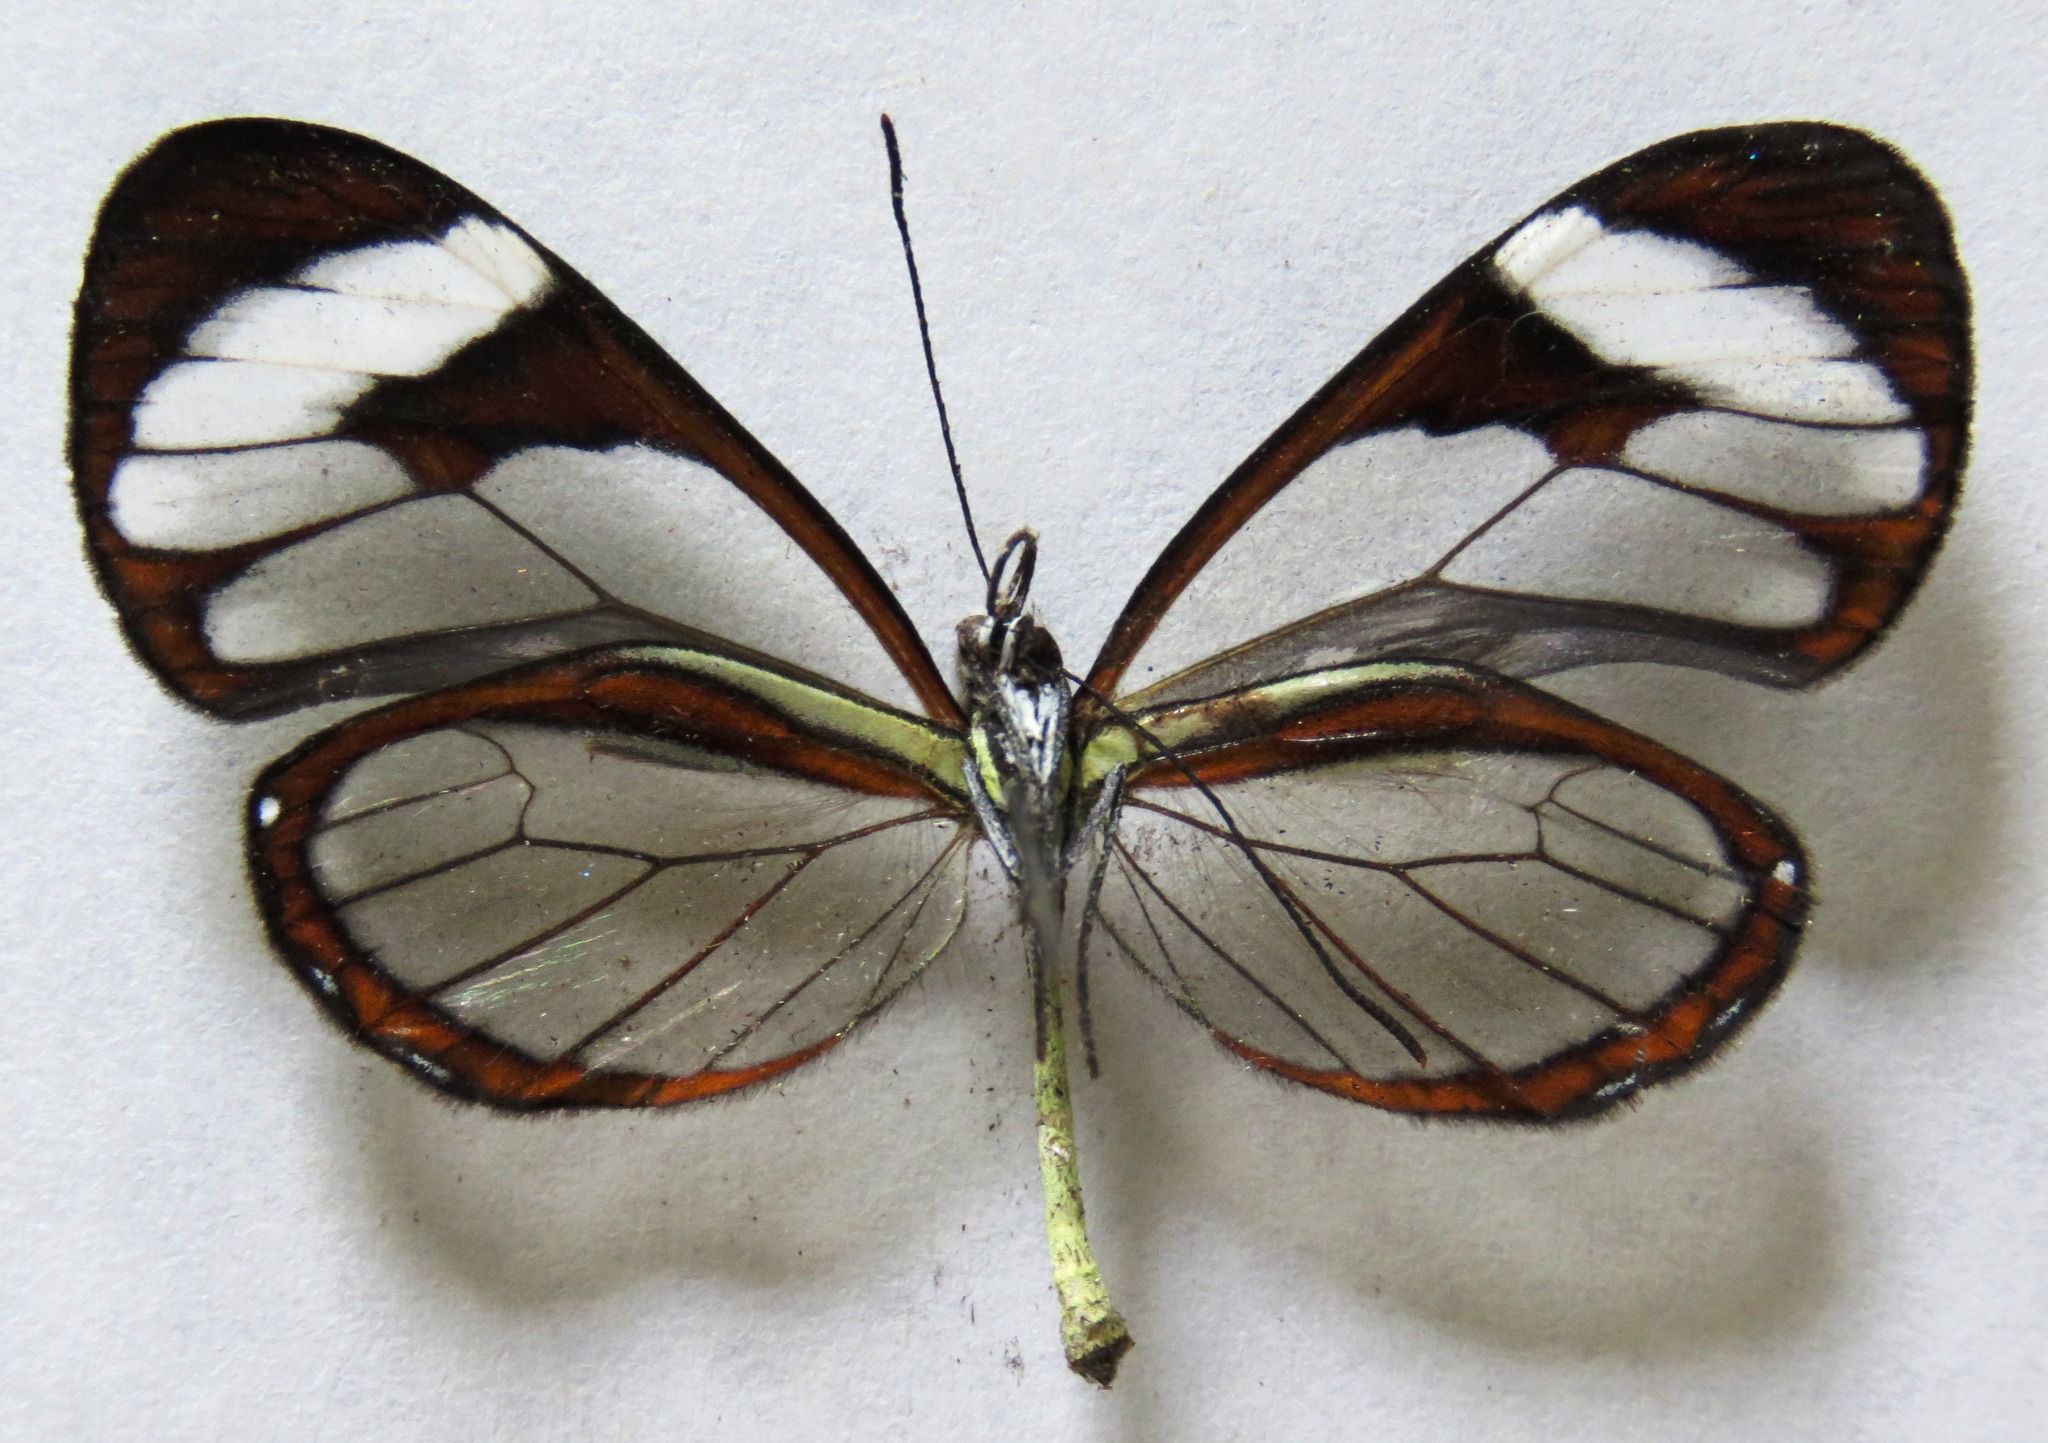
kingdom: Animalia
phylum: Arthropoda
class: Insecta
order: Lepidoptera
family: Nymphalidae
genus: Ithomia
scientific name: Ithomia patilla
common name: Patilla clearwing
